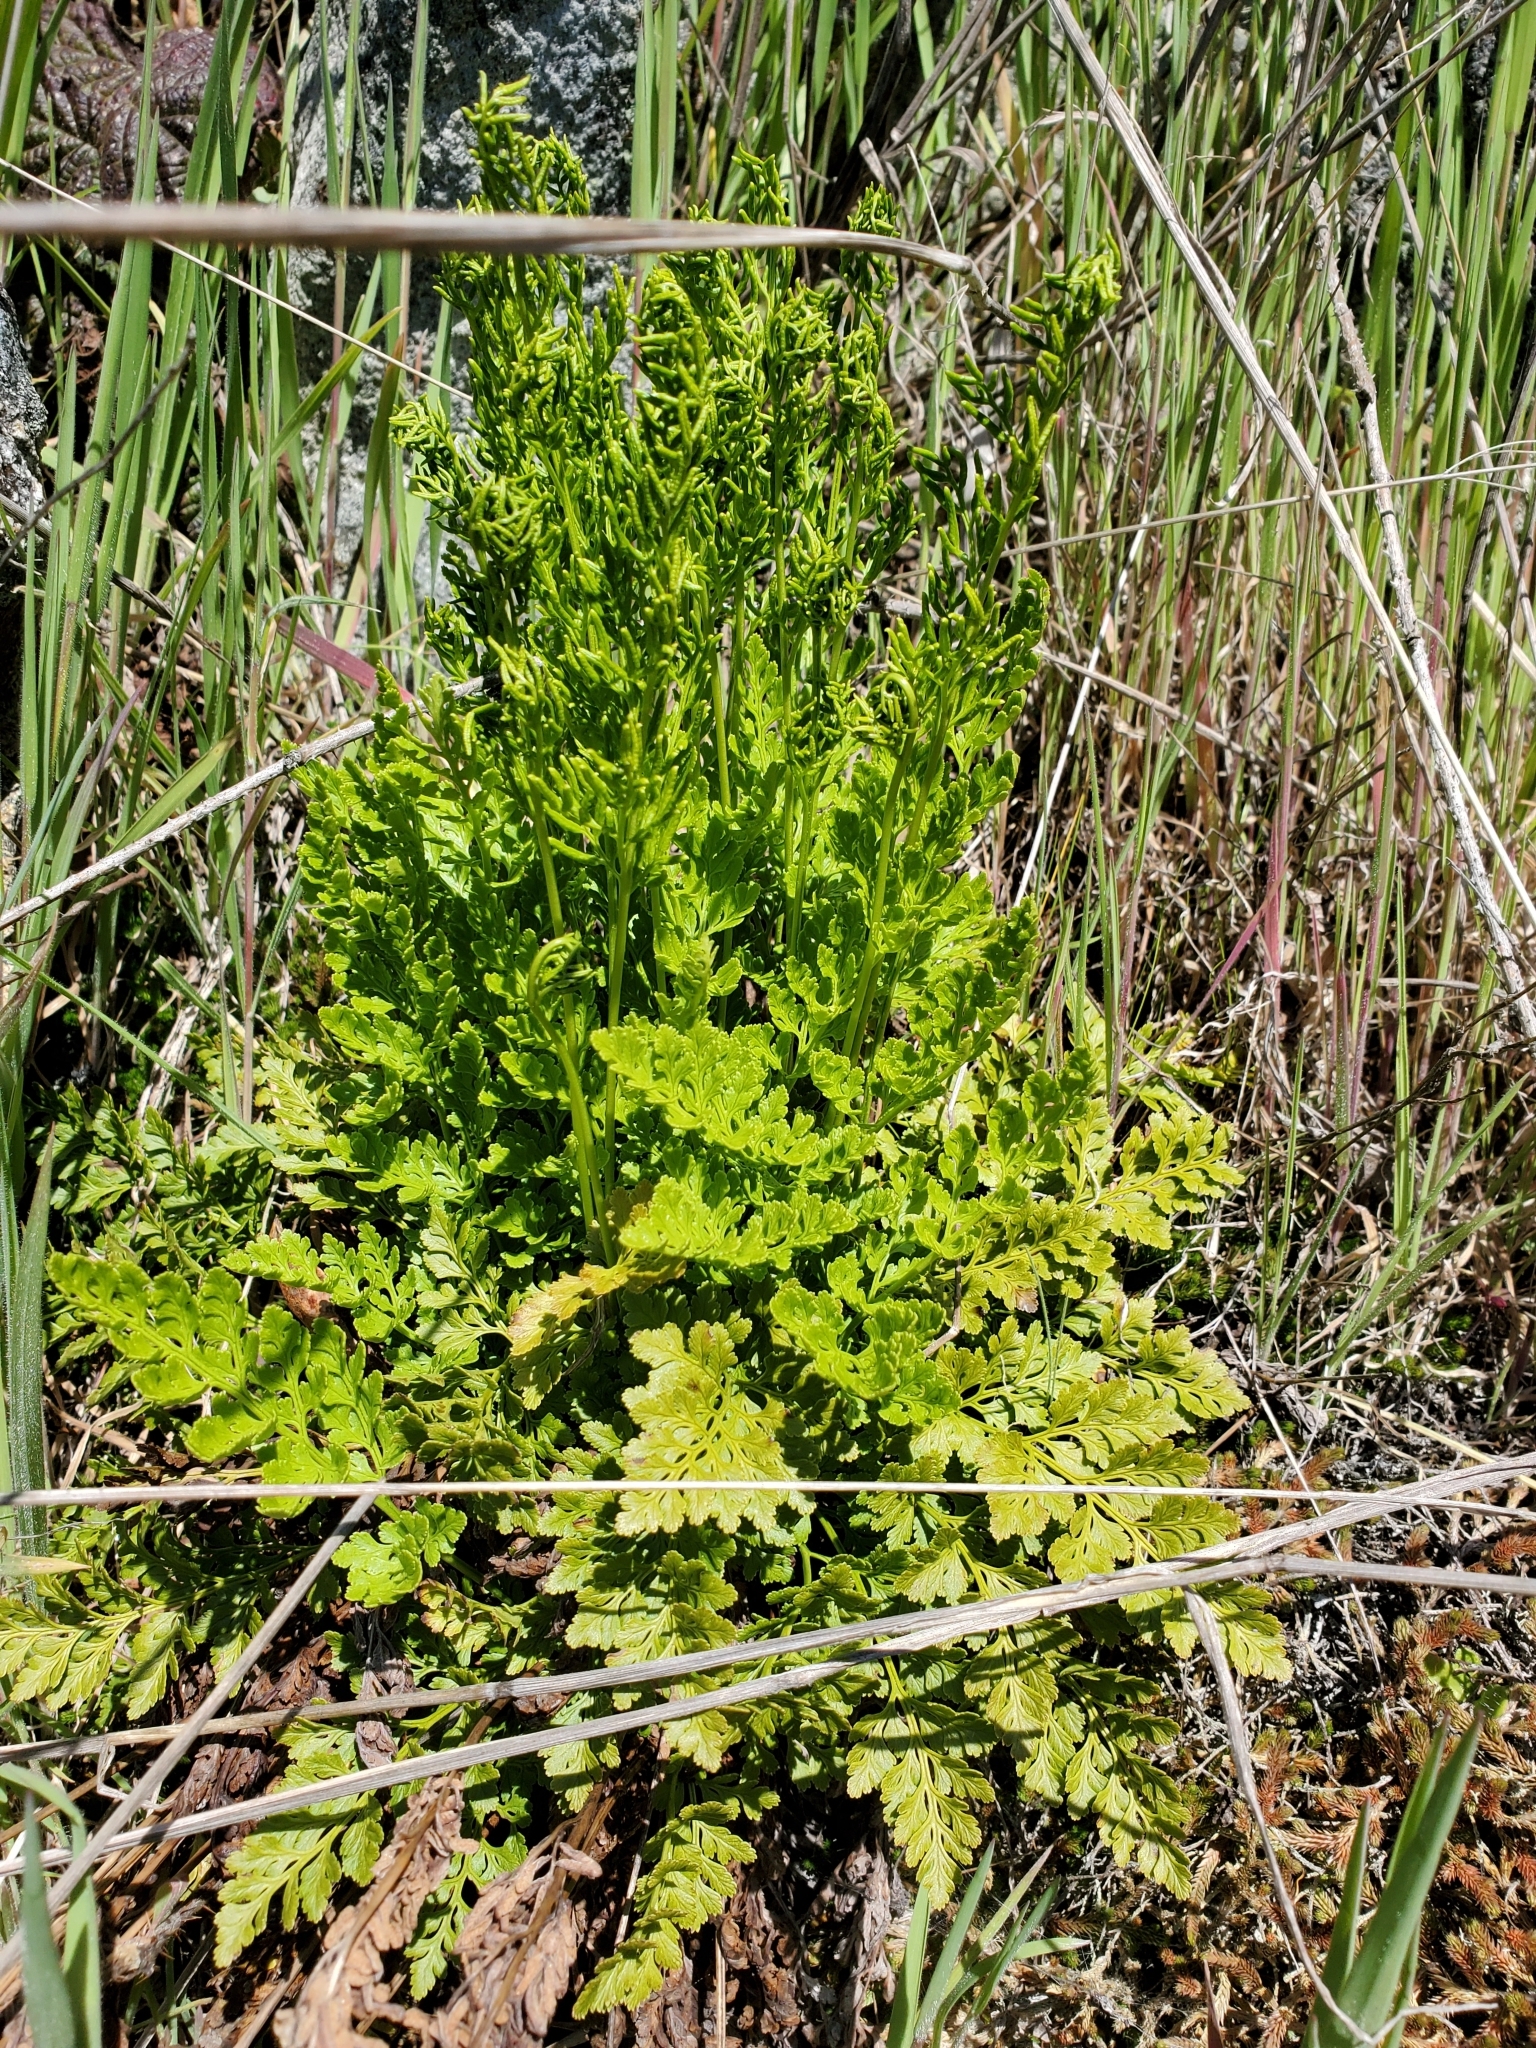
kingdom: Plantae
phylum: Tracheophyta
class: Polypodiopsida
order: Polypodiales
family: Pteridaceae
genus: Cryptogramma
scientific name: Cryptogramma acrostichoides
